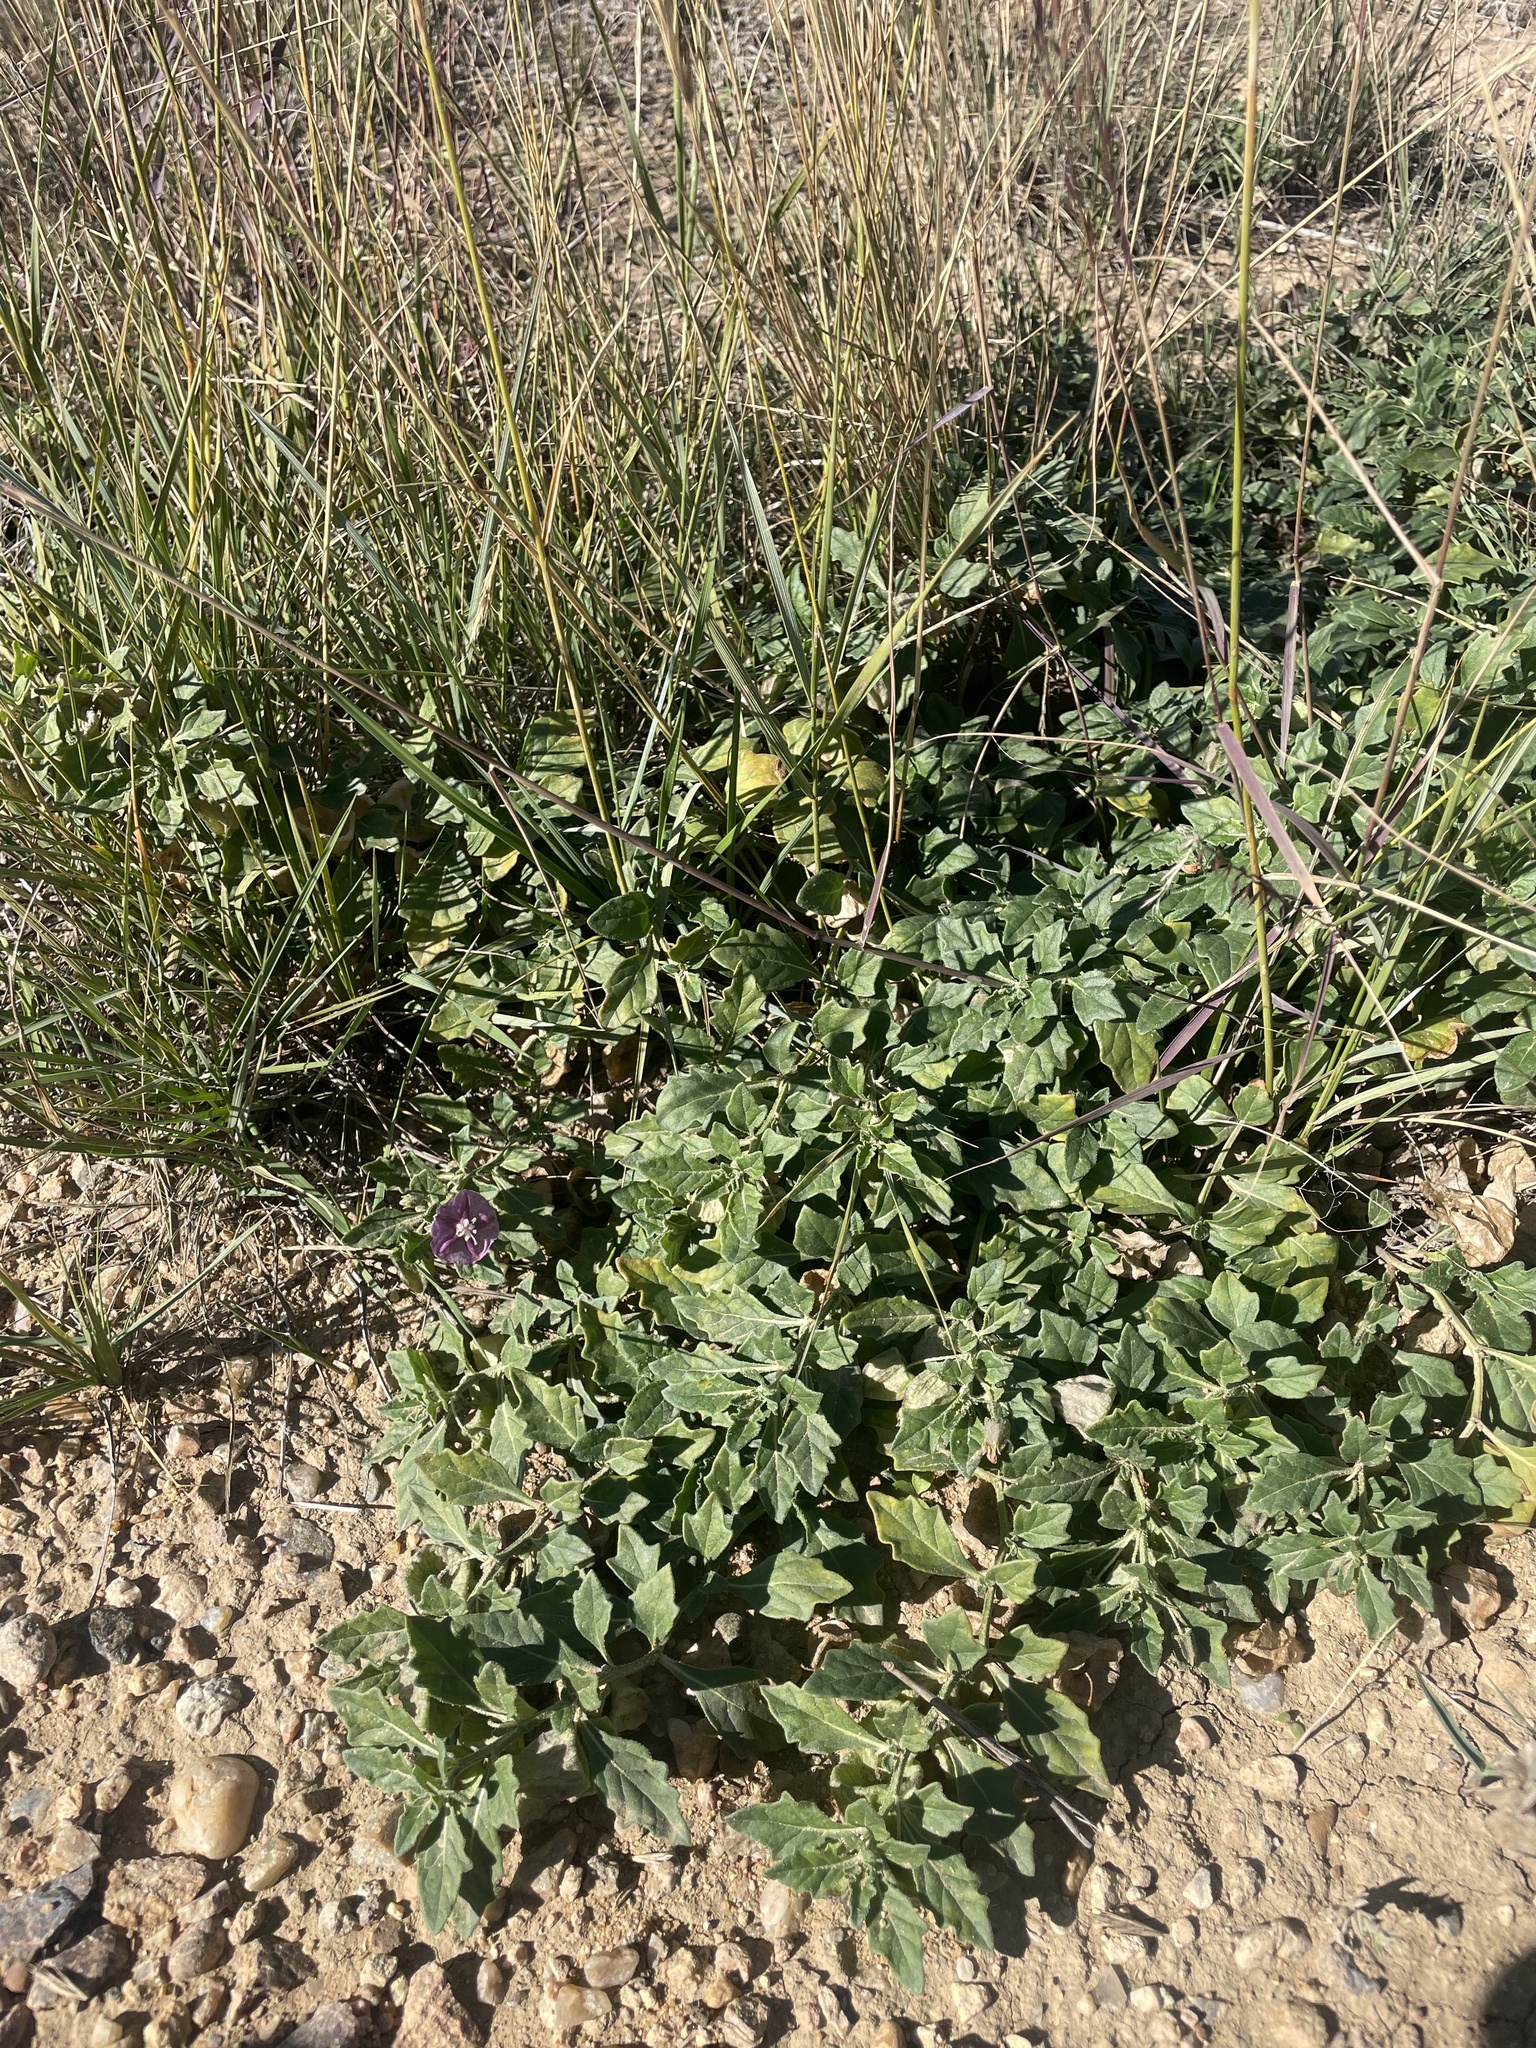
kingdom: Plantae
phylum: Tracheophyta
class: Magnoliopsida
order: Solanales
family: Solanaceae
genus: Quincula
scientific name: Quincula lobata
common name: Purple-ground-cherry
